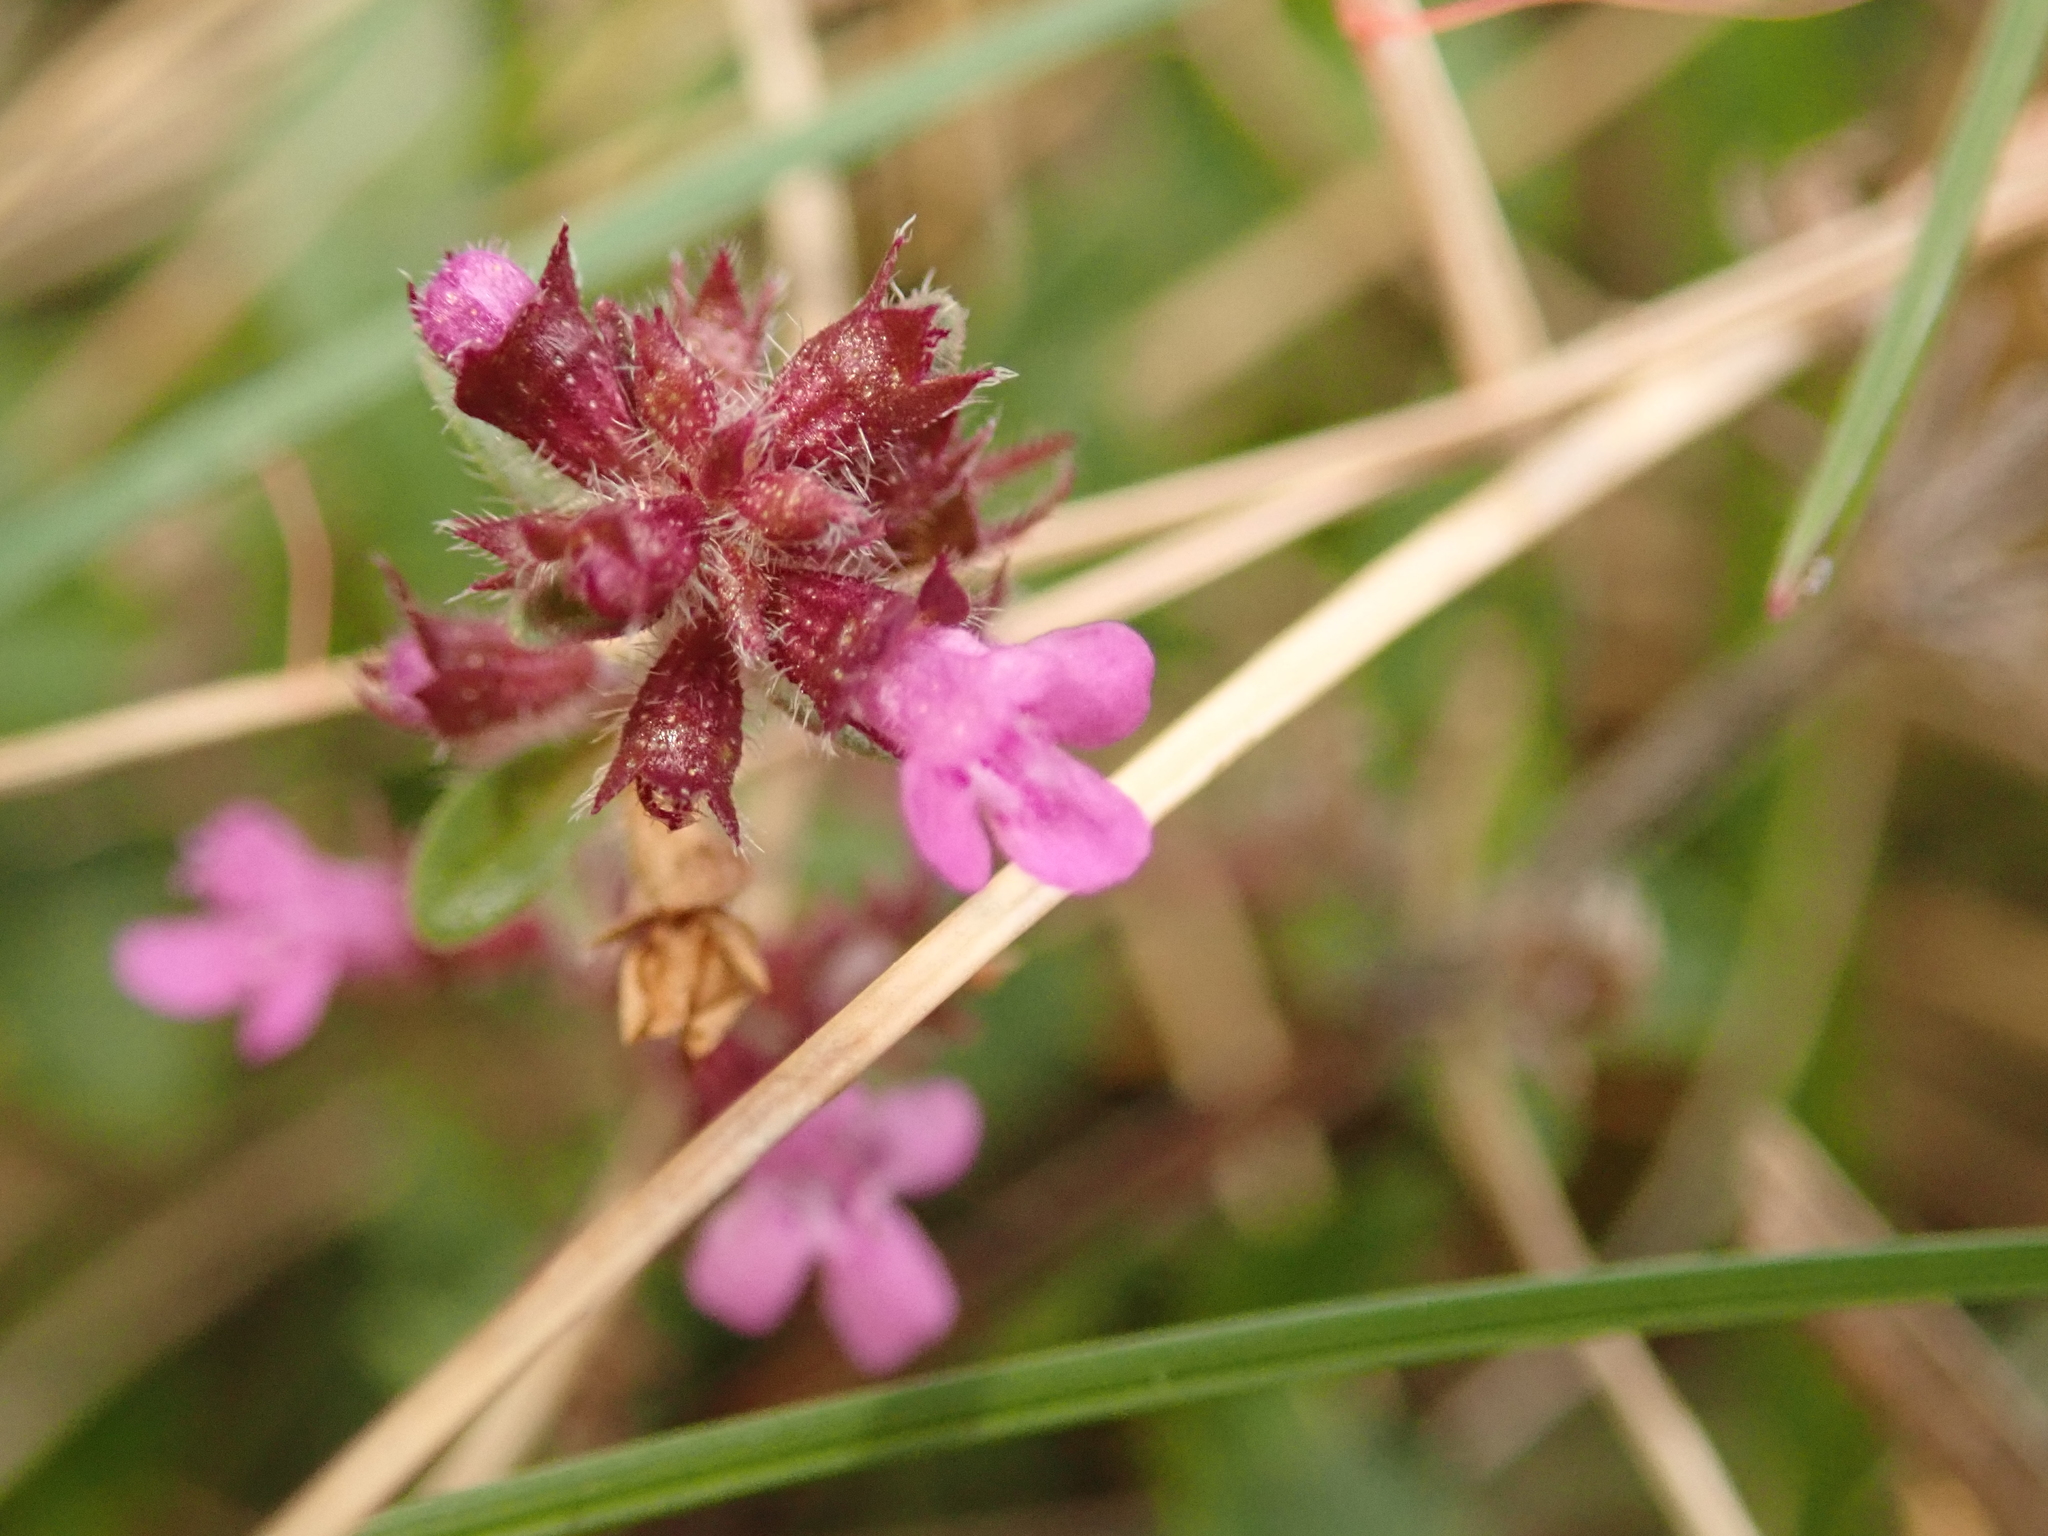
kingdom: Plantae
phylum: Tracheophyta
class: Magnoliopsida
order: Lamiales
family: Lamiaceae
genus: Thymus
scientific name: Thymus pulegioides
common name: Large thyme
